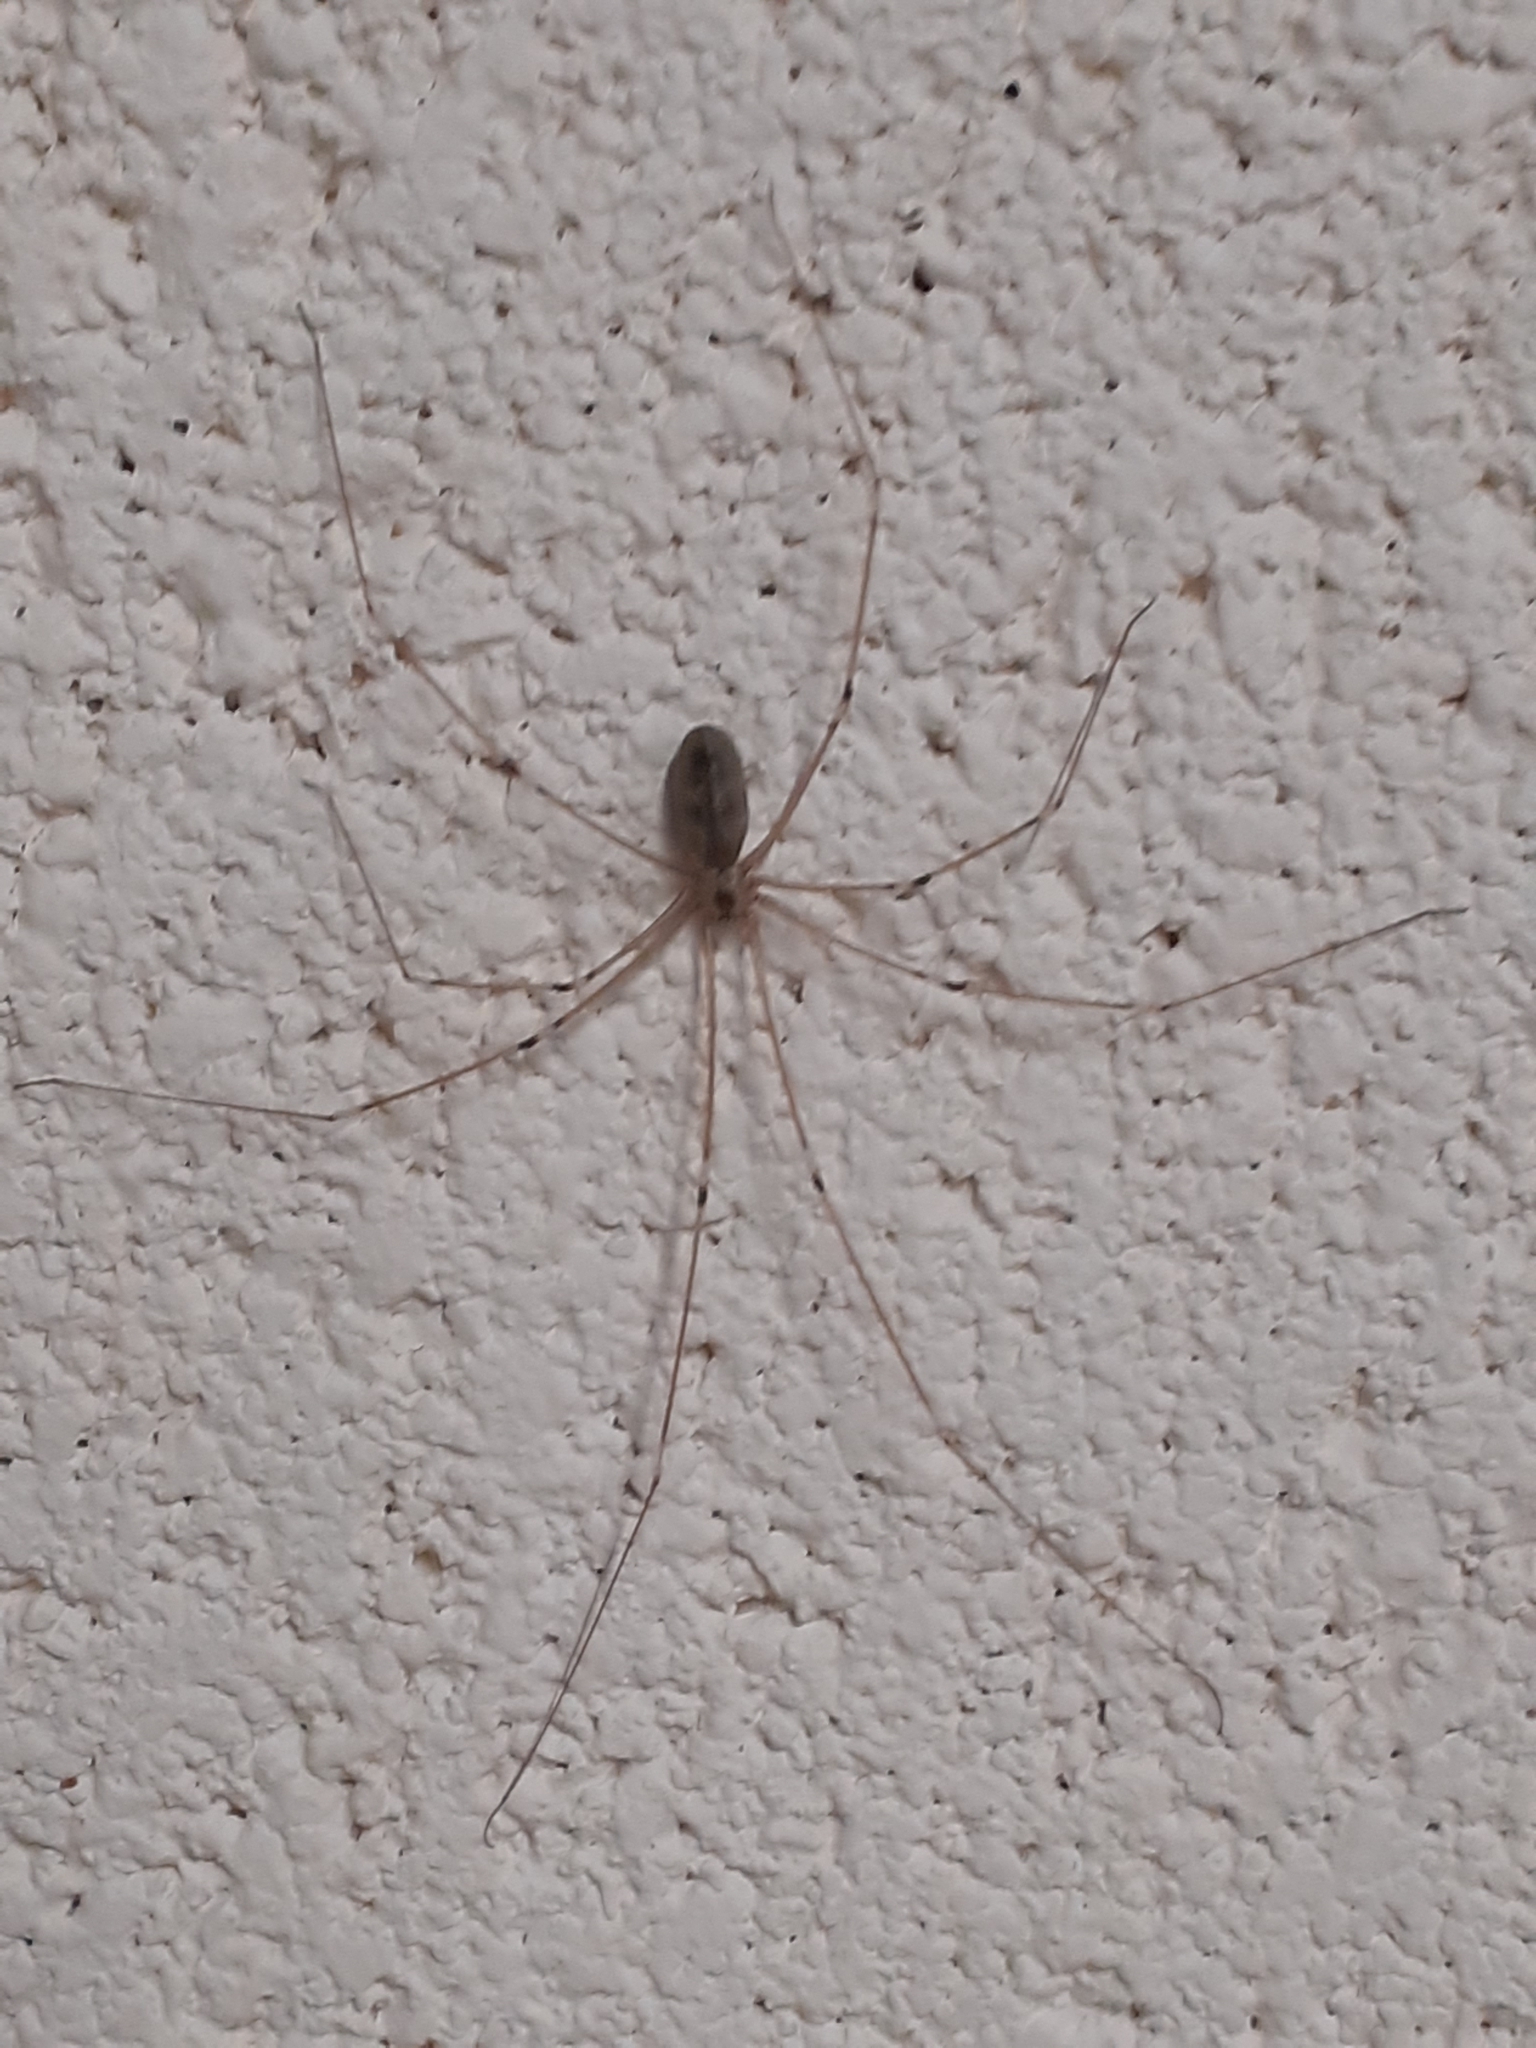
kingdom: Animalia
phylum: Arthropoda
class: Arachnida
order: Araneae
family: Pholcidae
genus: Pholcus
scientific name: Pholcus phalangioides
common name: Longbodied cellar spider
